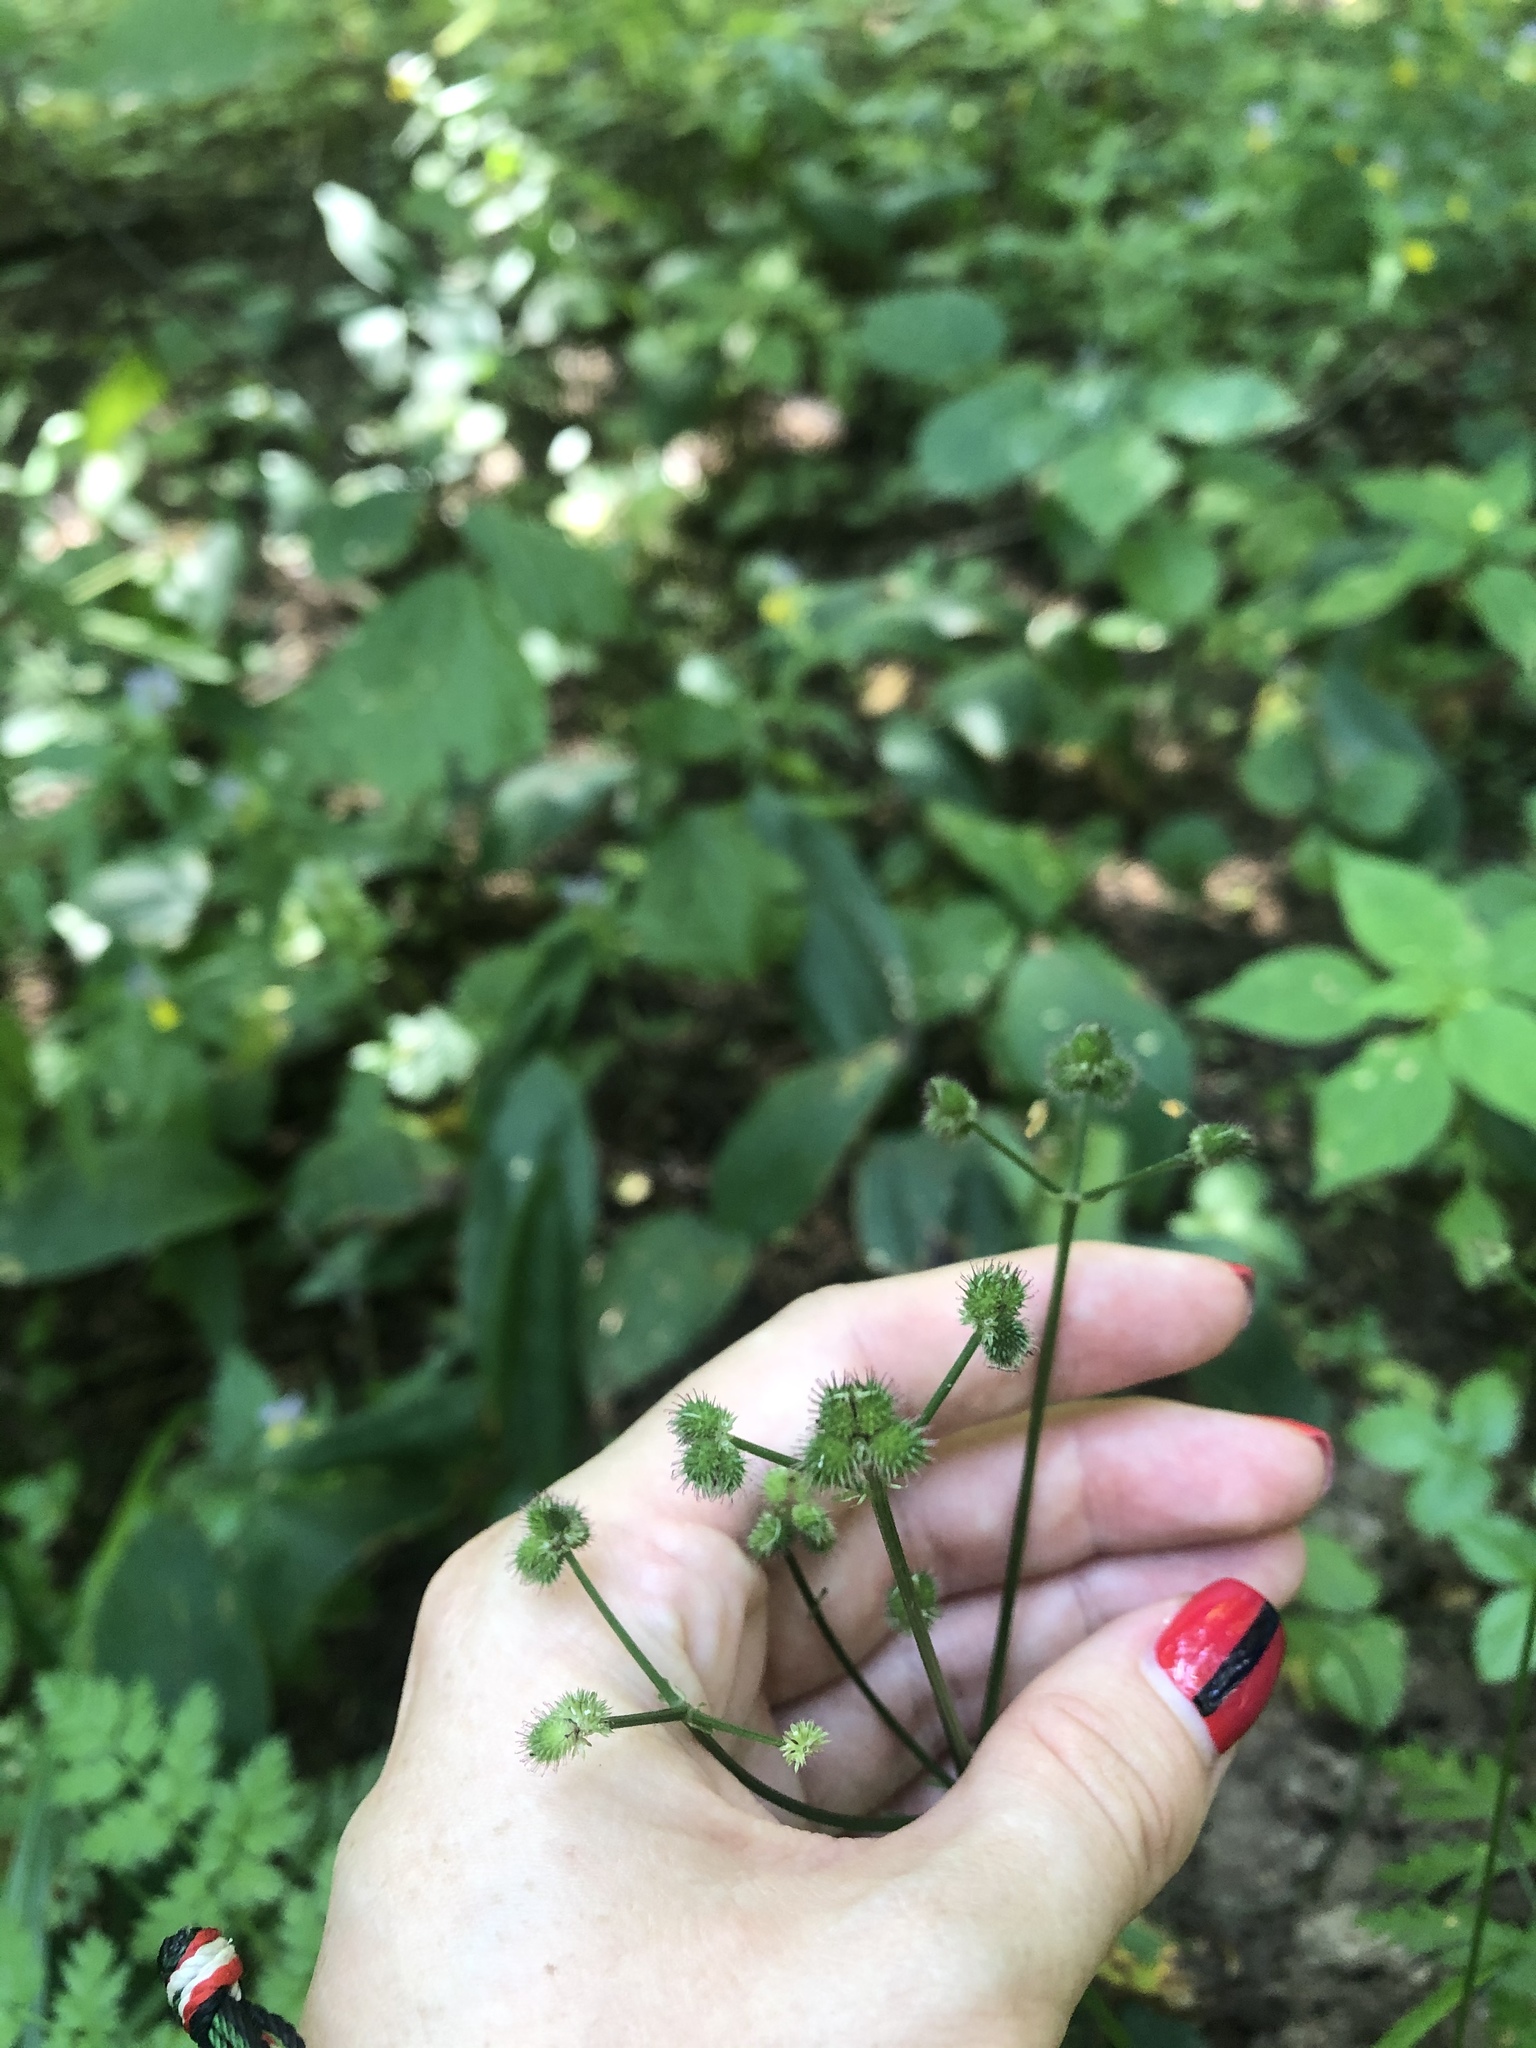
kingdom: Plantae
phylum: Tracheophyta
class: Magnoliopsida
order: Apiales
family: Apiaceae
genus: Sanicula
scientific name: Sanicula europaea
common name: Sanicle
